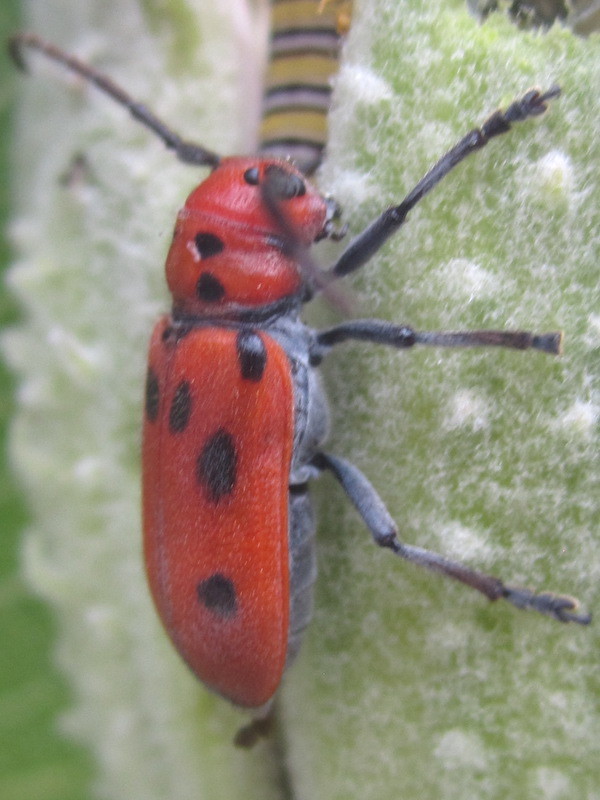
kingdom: Animalia
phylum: Arthropoda
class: Insecta
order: Coleoptera
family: Cerambycidae
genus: Tetraopes
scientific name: Tetraopes tetrophthalmus
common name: Red milkweed beetle
